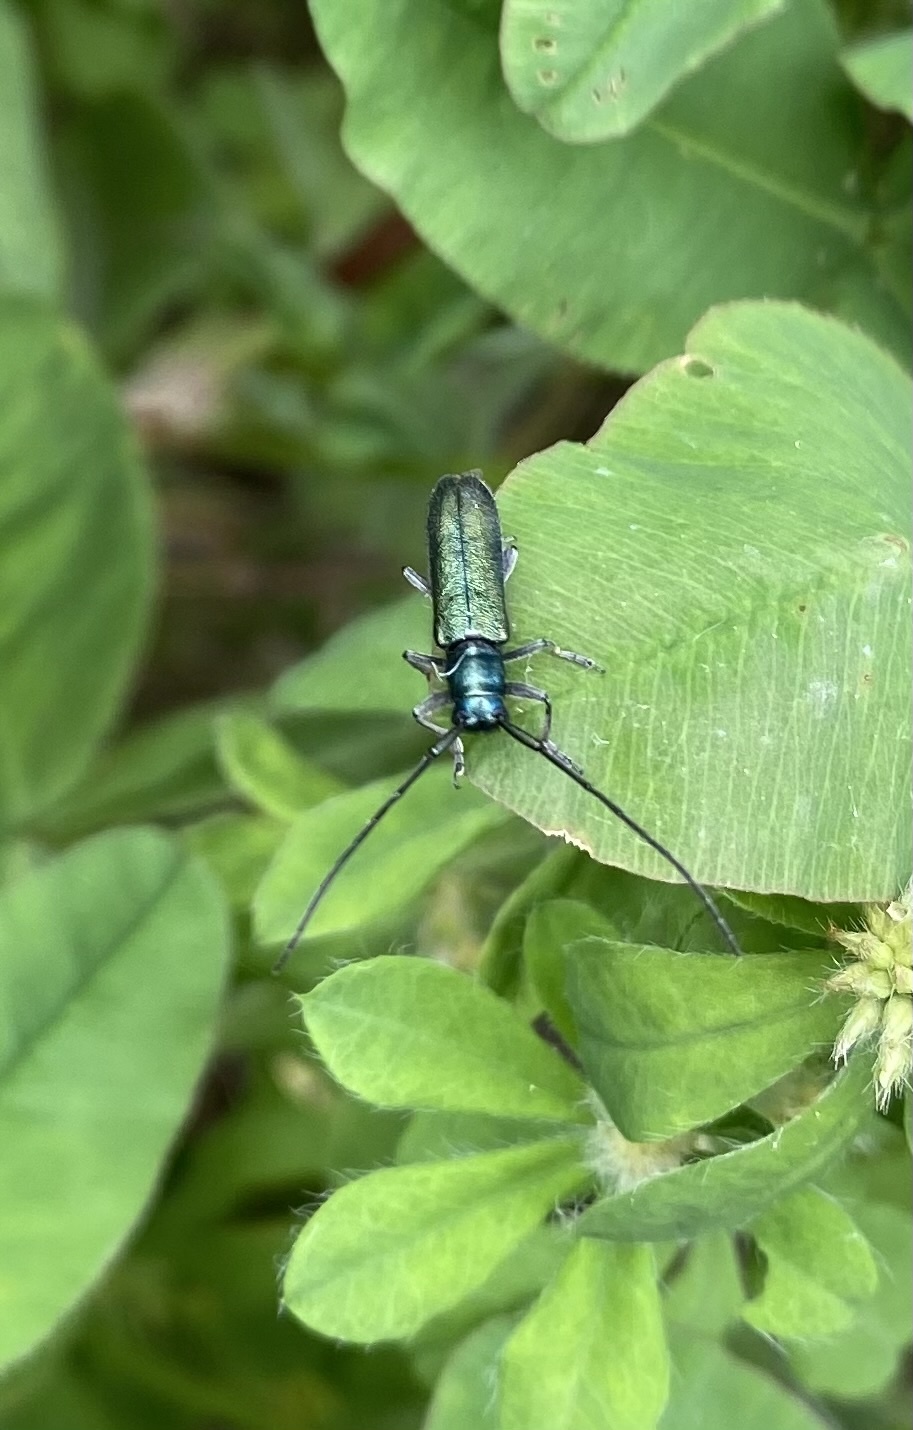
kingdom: Animalia
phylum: Arthropoda
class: Insecta
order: Coleoptera
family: Cerambycidae
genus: Agapanthia
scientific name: Agapanthia violacea
